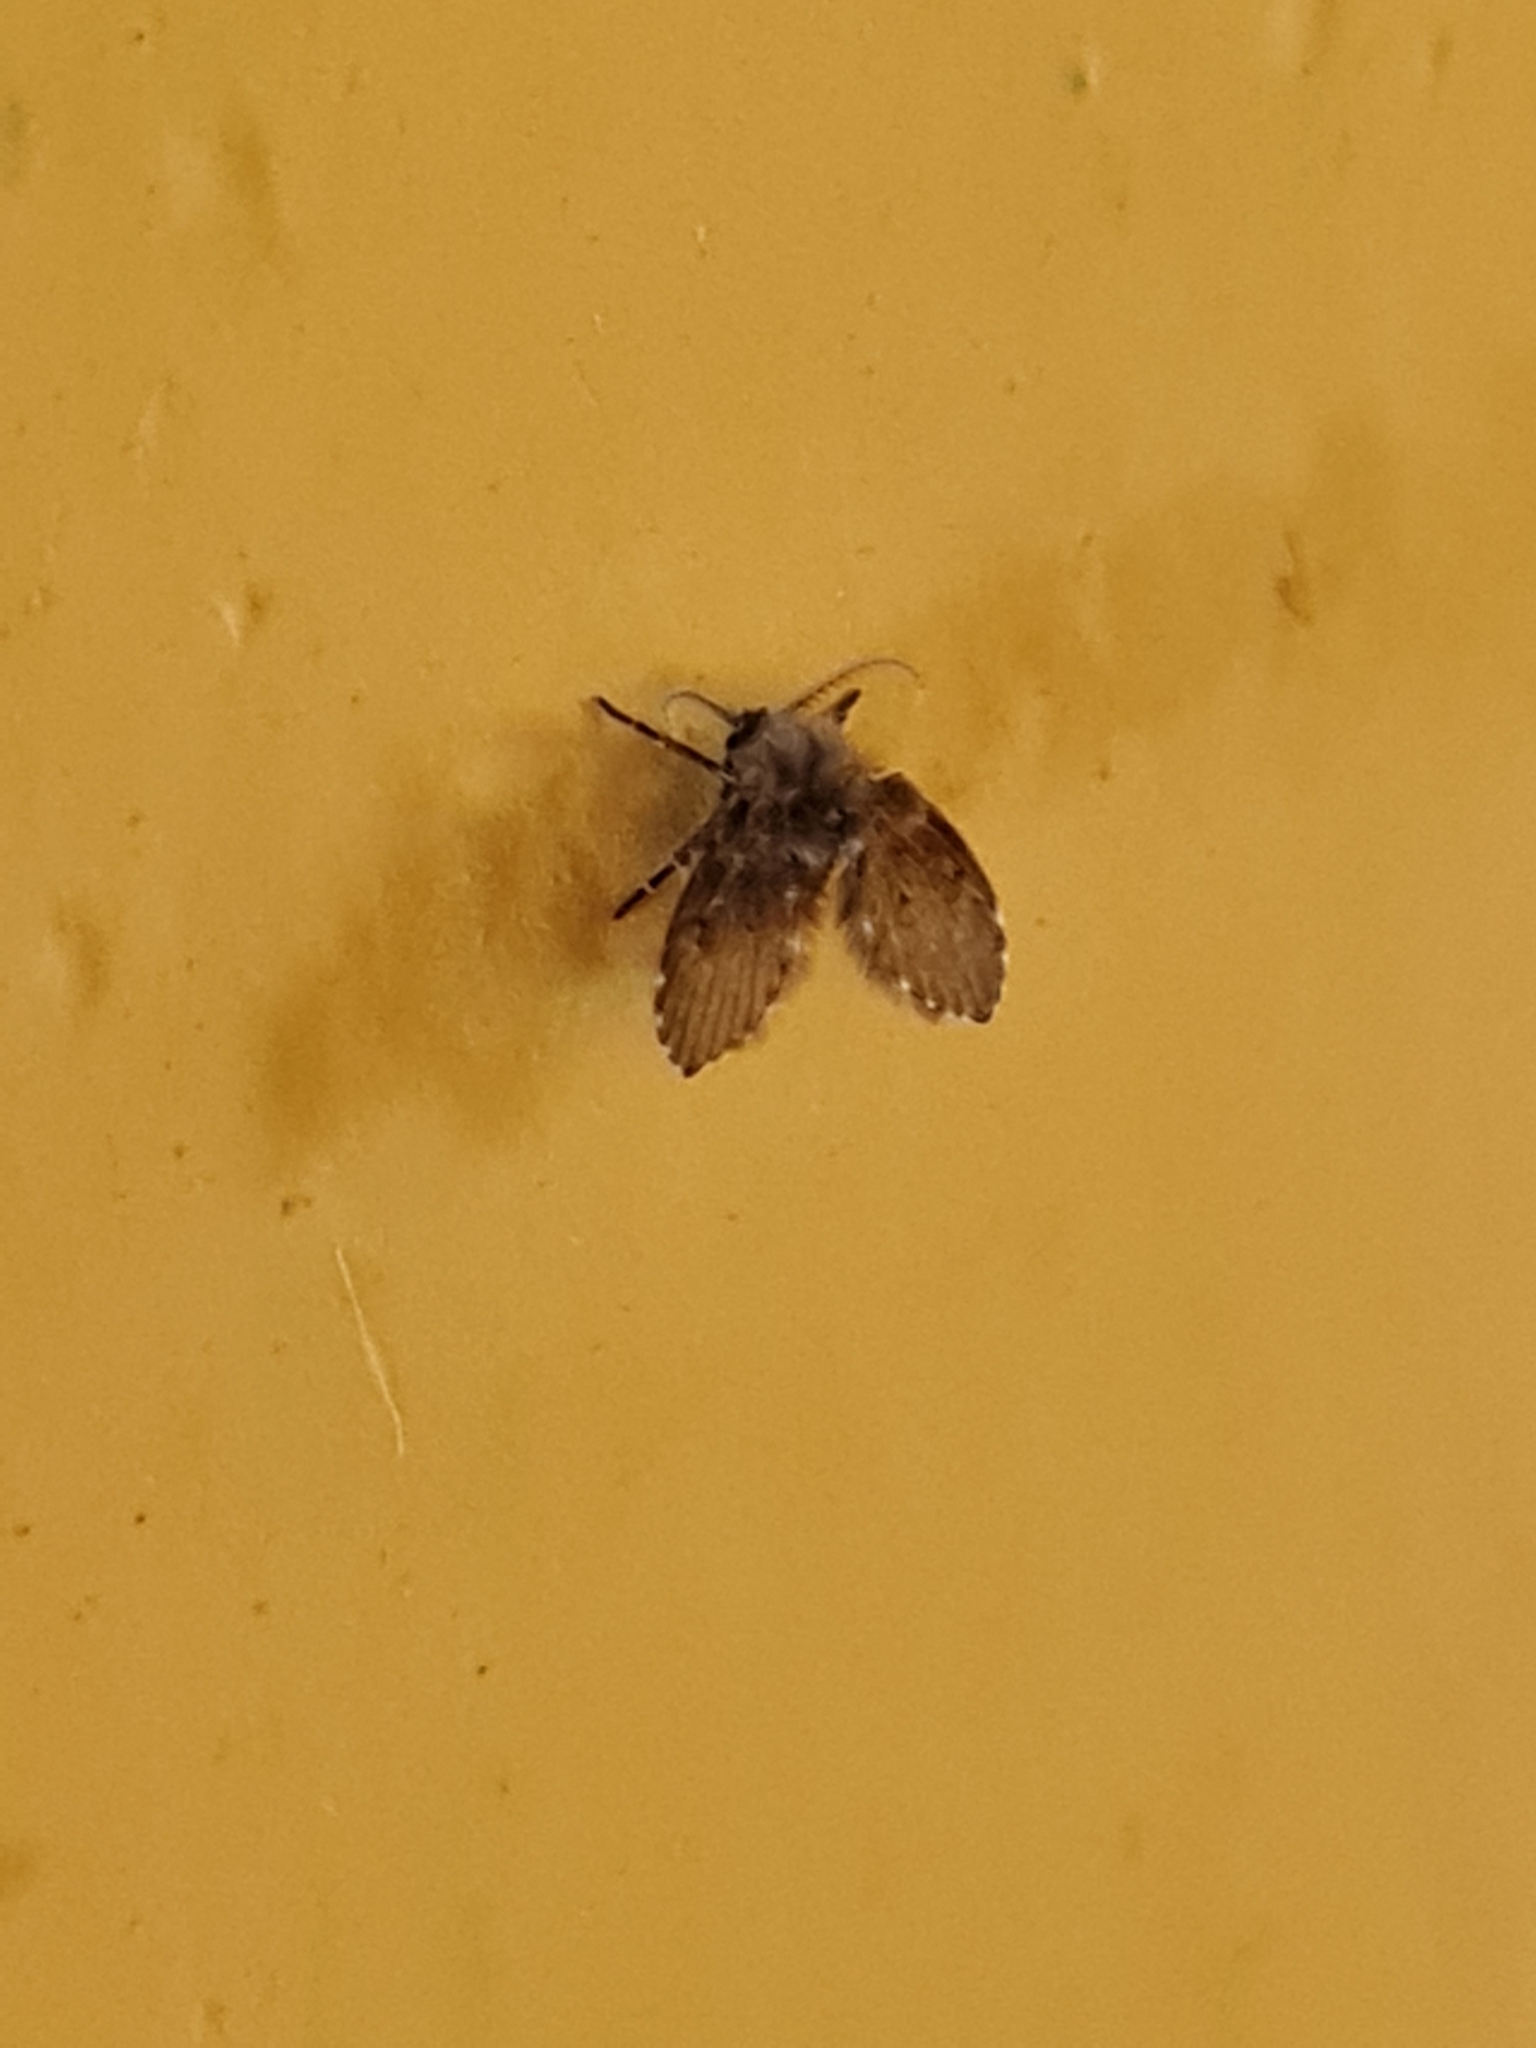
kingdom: Animalia
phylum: Arthropoda
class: Insecta
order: Diptera
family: Psychodidae
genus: Clogmia
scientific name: Clogmia albipunctatus
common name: White-spotted moth fly
